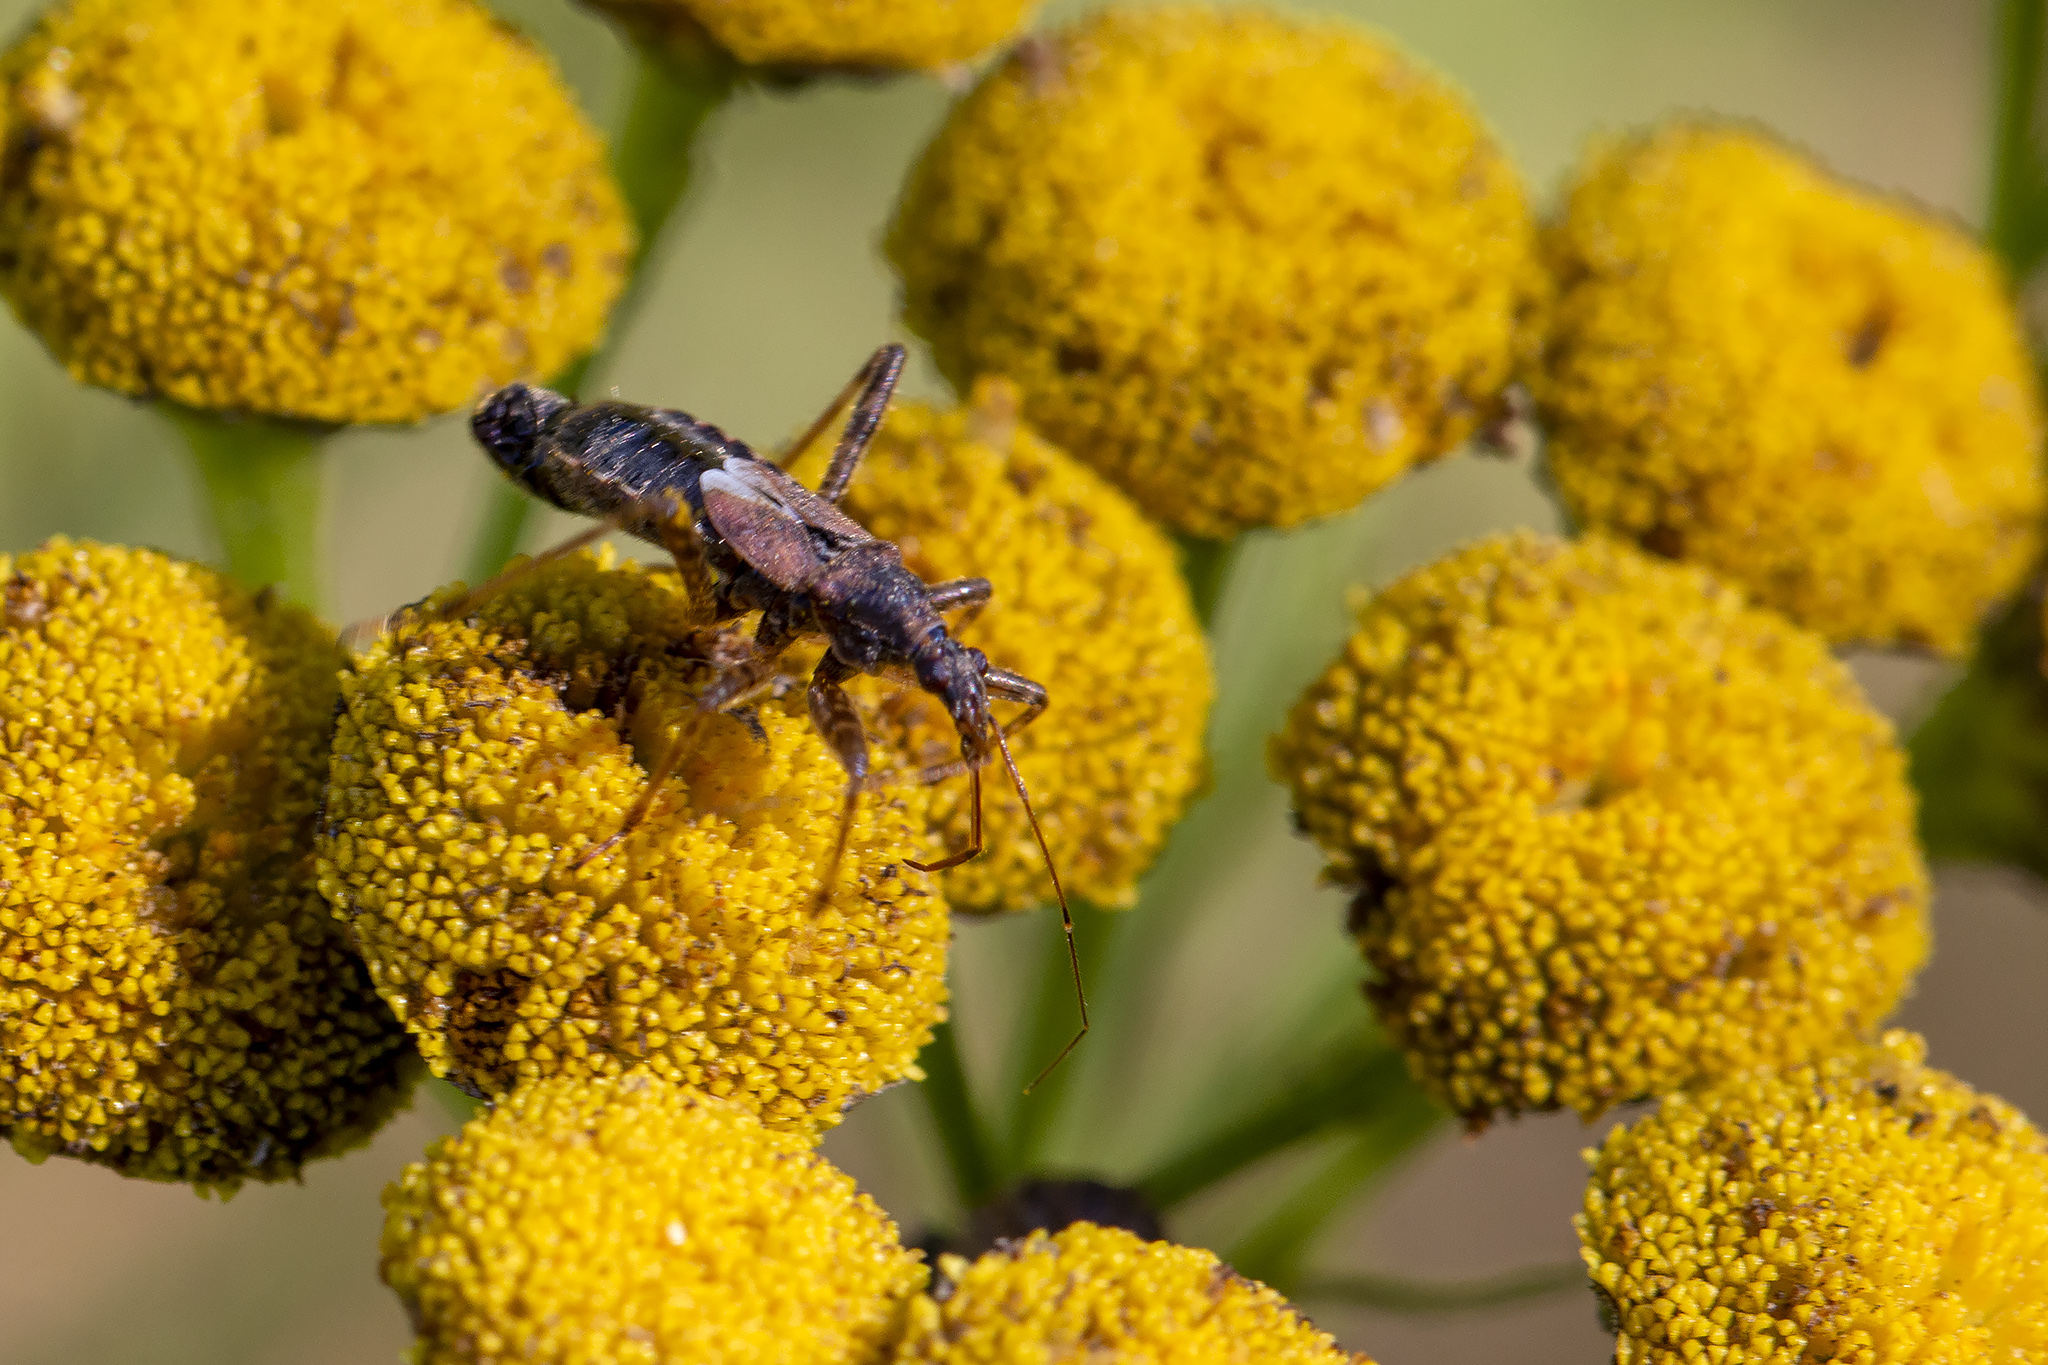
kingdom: Animalia
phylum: Arthropoda
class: Insecta
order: Hemiptera
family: Nabidae
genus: Himacerus
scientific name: Himacerus apterus
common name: Tree damsel bug
